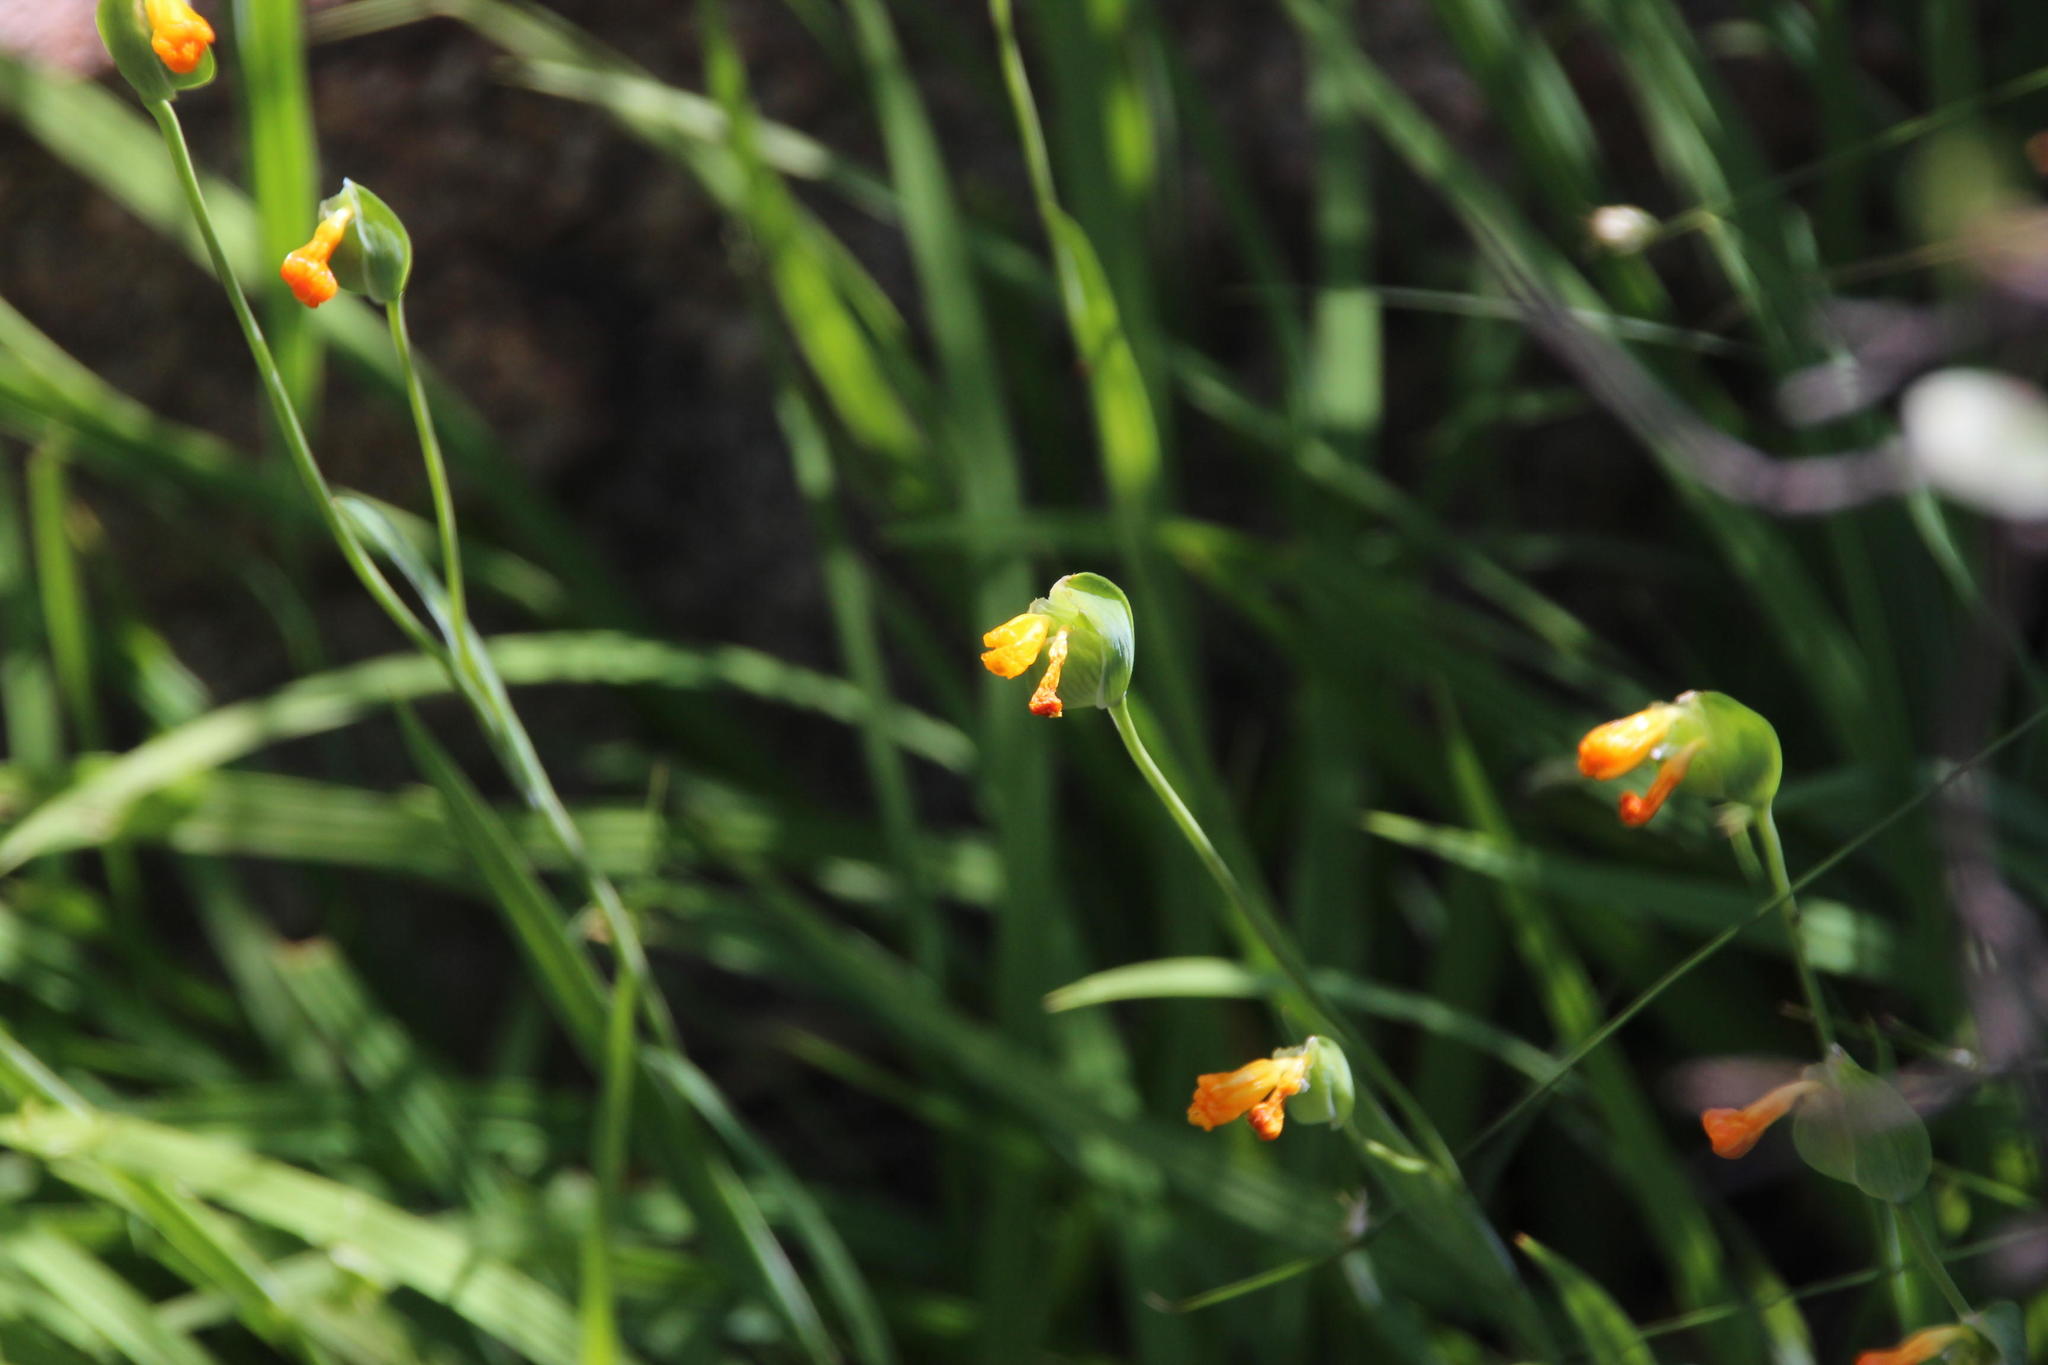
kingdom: Plantae
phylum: Tracheophyta
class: Liliopsida
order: Asparagales
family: Iridaceae
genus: Solenomelus
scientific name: Solenomelus pedunculatus
